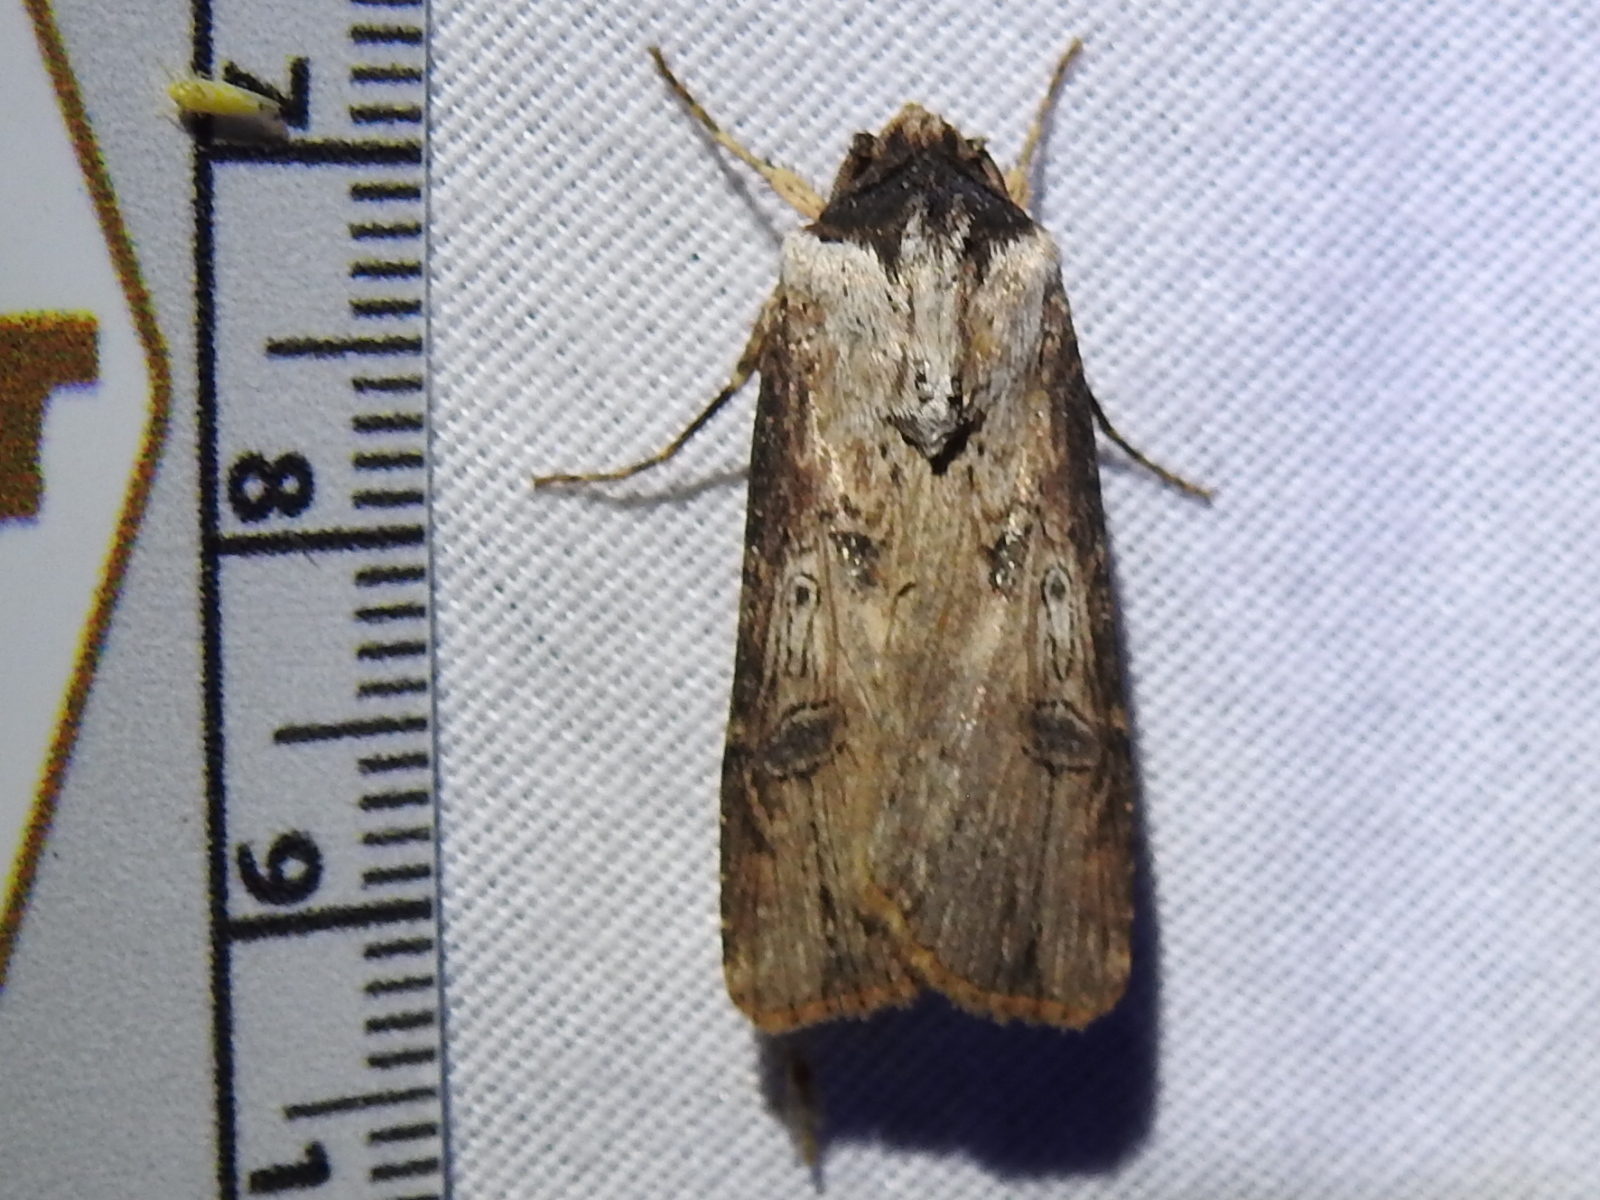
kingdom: Animalia
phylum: Arthropoda
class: Insecta
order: Lepidoptera
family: Noctuidae
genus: Agrotis
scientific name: Agrotis malefida
